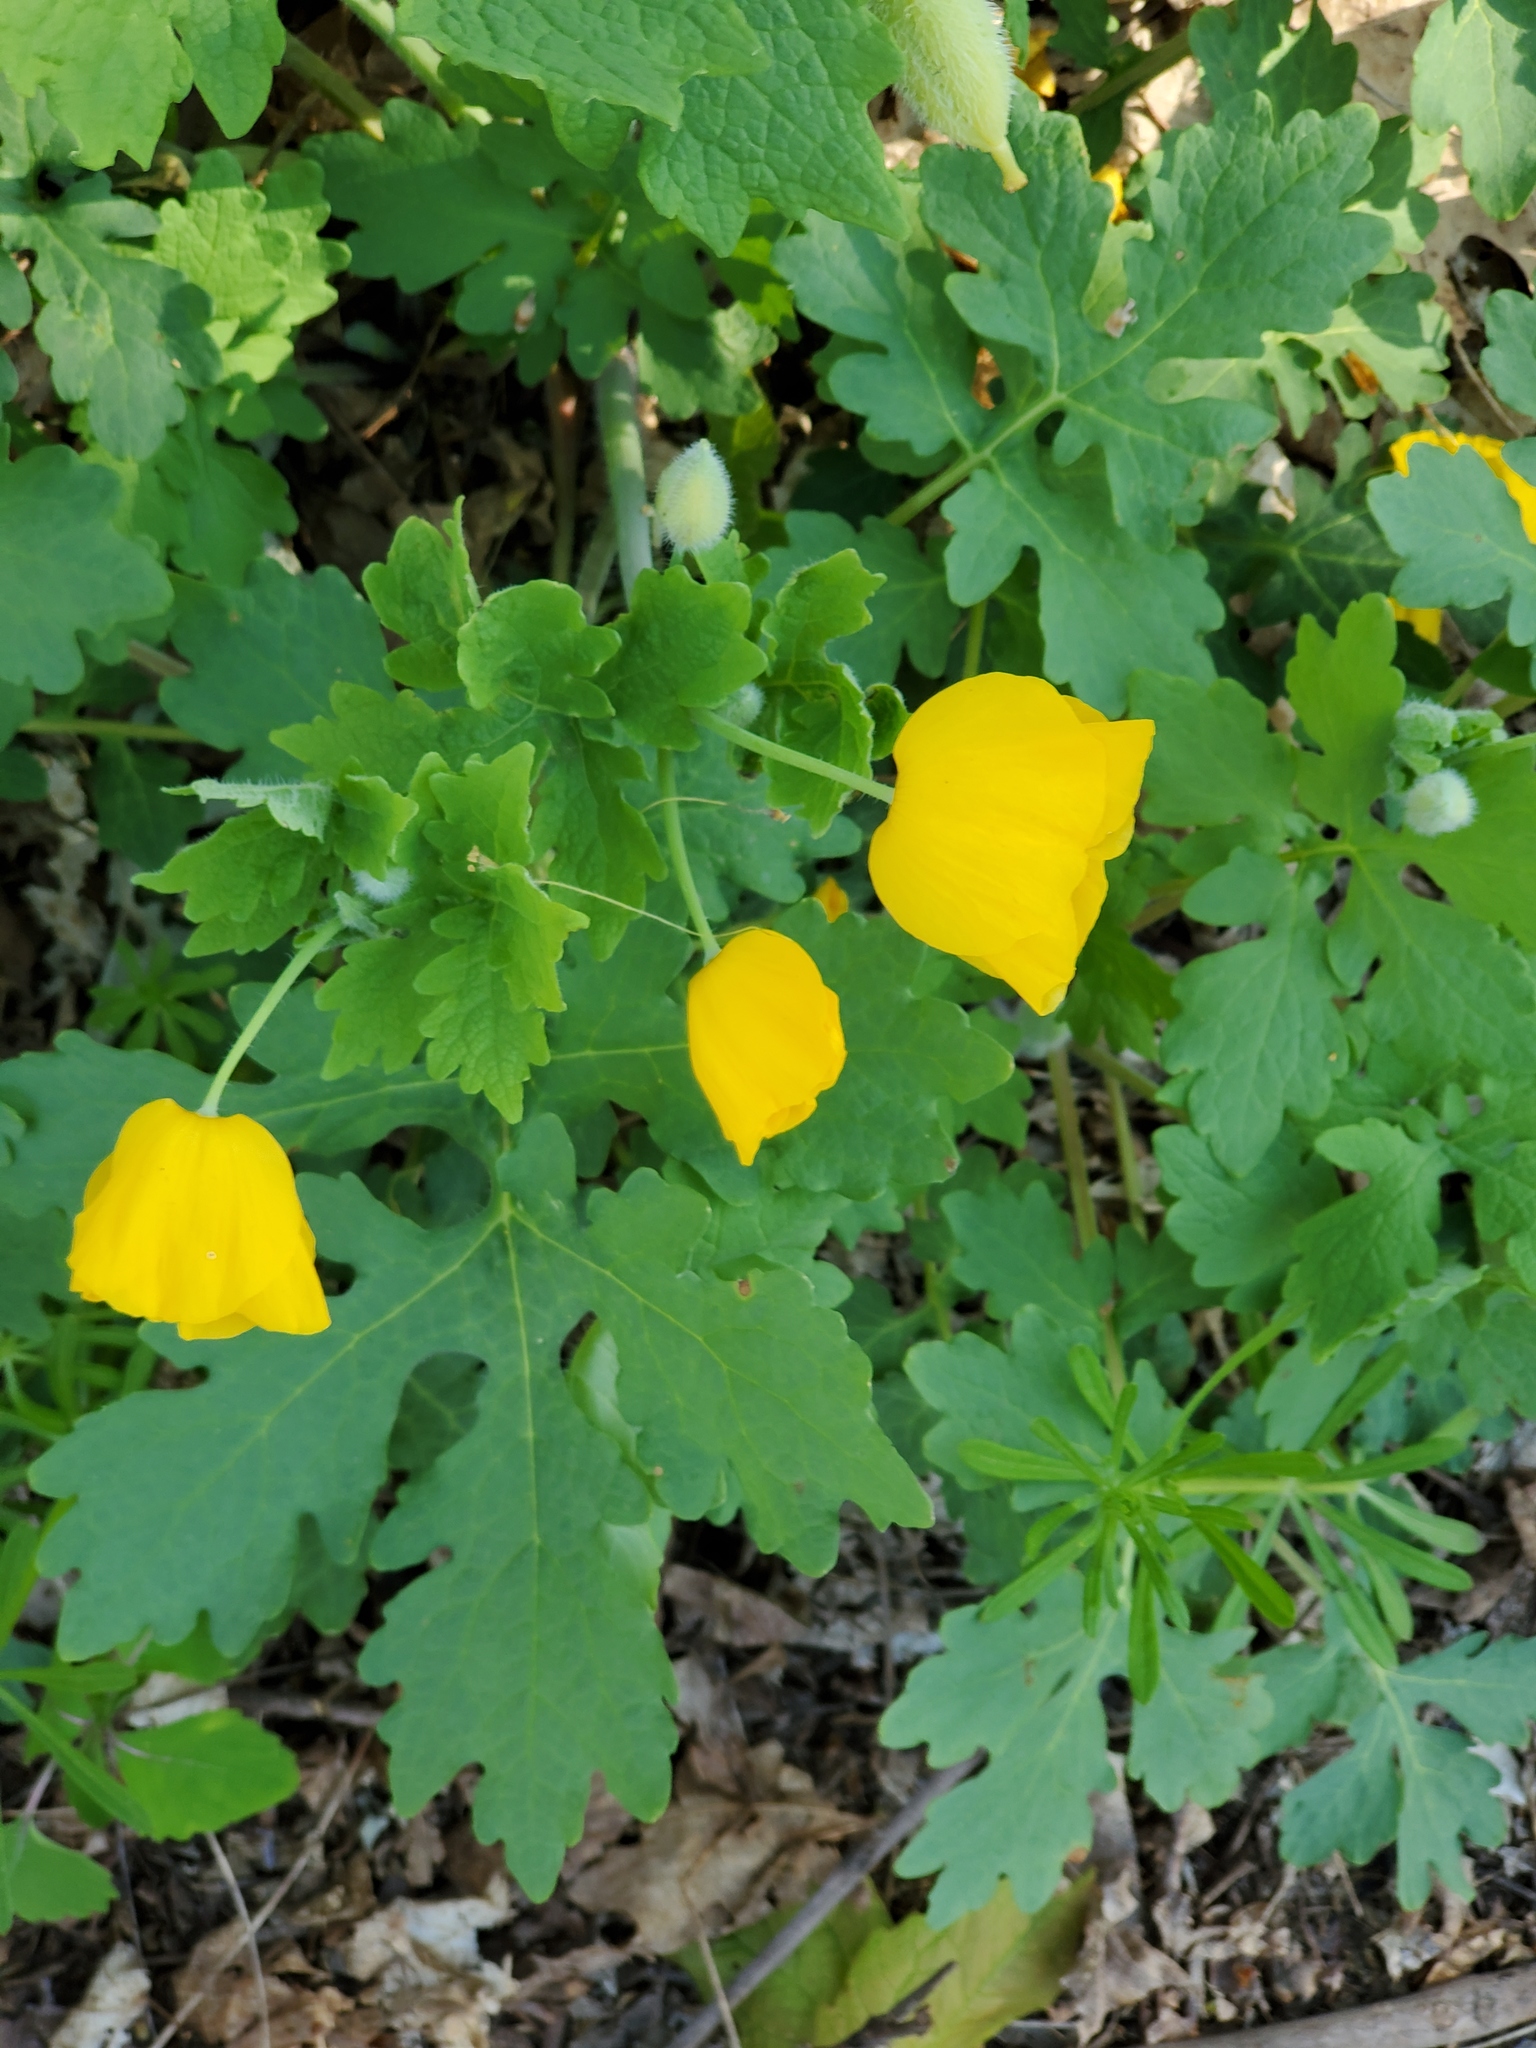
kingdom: Plantae
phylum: Tracheophyta
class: Magnoliopsida
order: Ranunculales
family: Papaveraceae
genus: Stylophorum
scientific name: Stylophorum diphyllum
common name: Celandine poppy
